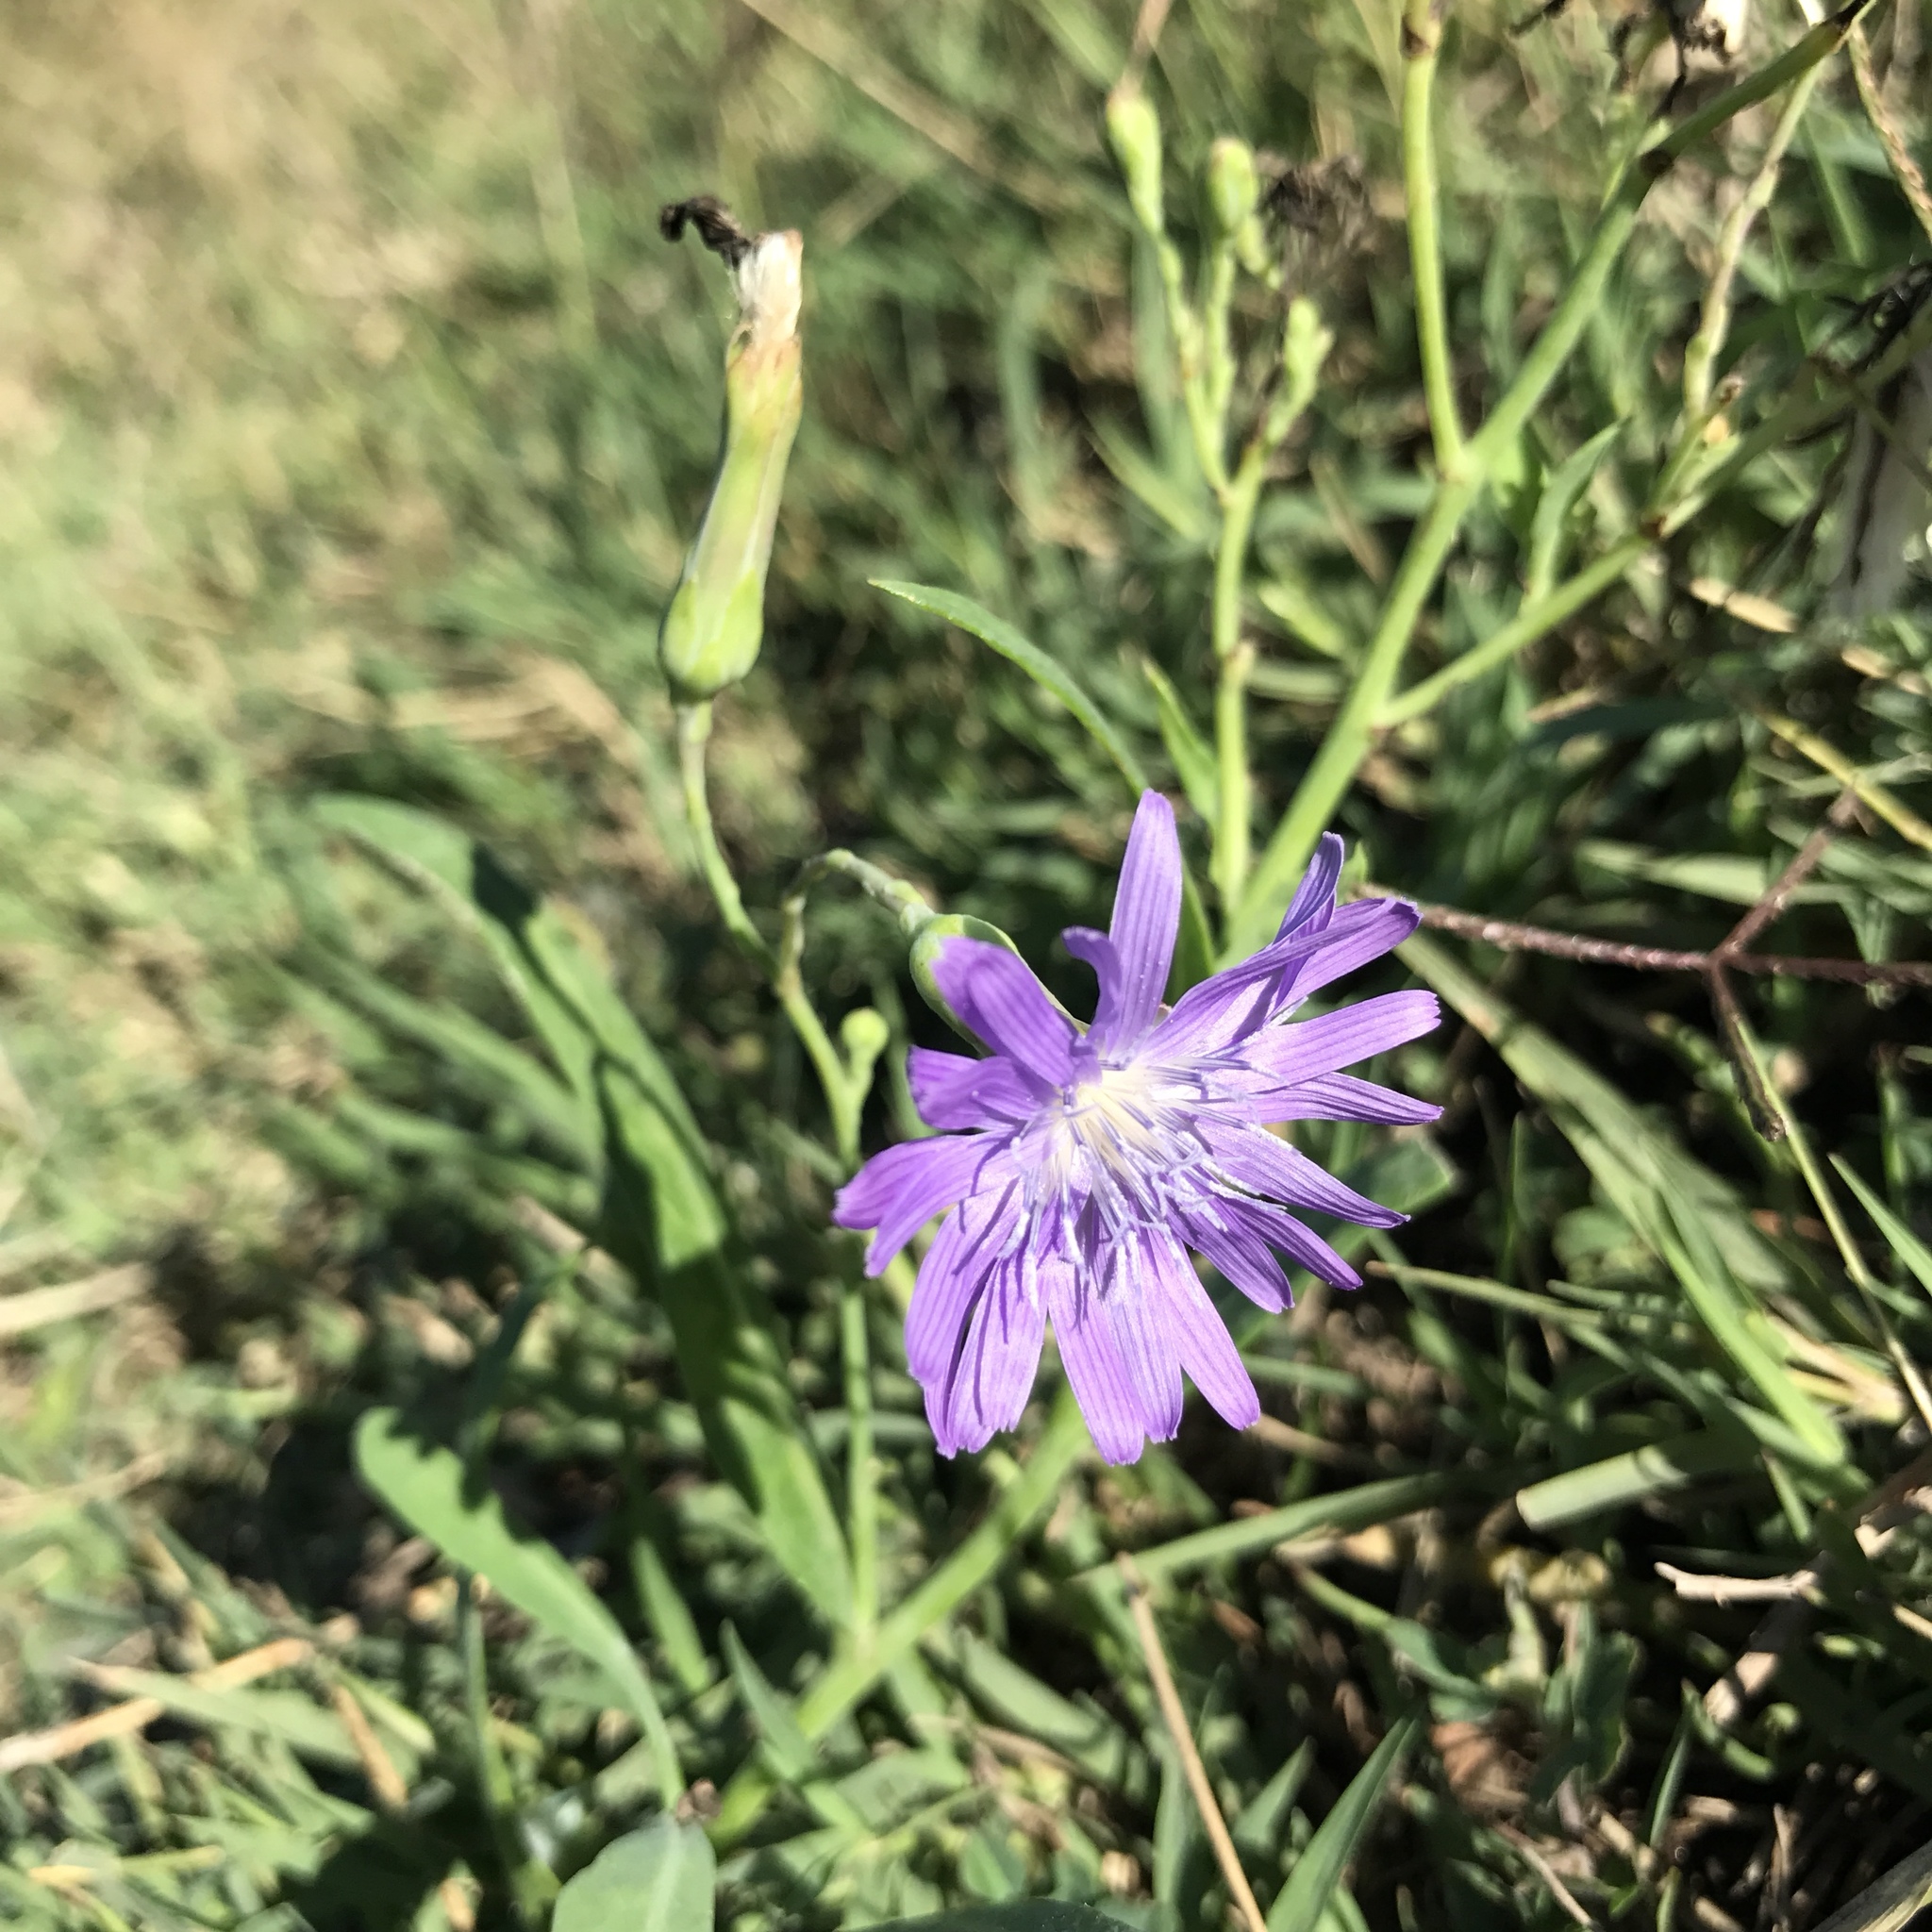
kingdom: Plantae
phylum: Tracheophyta
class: Magnoliopsida
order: Asterales
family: Asteraceae
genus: Lactuca
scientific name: Lactuca tatarica
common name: Blue lettuce
